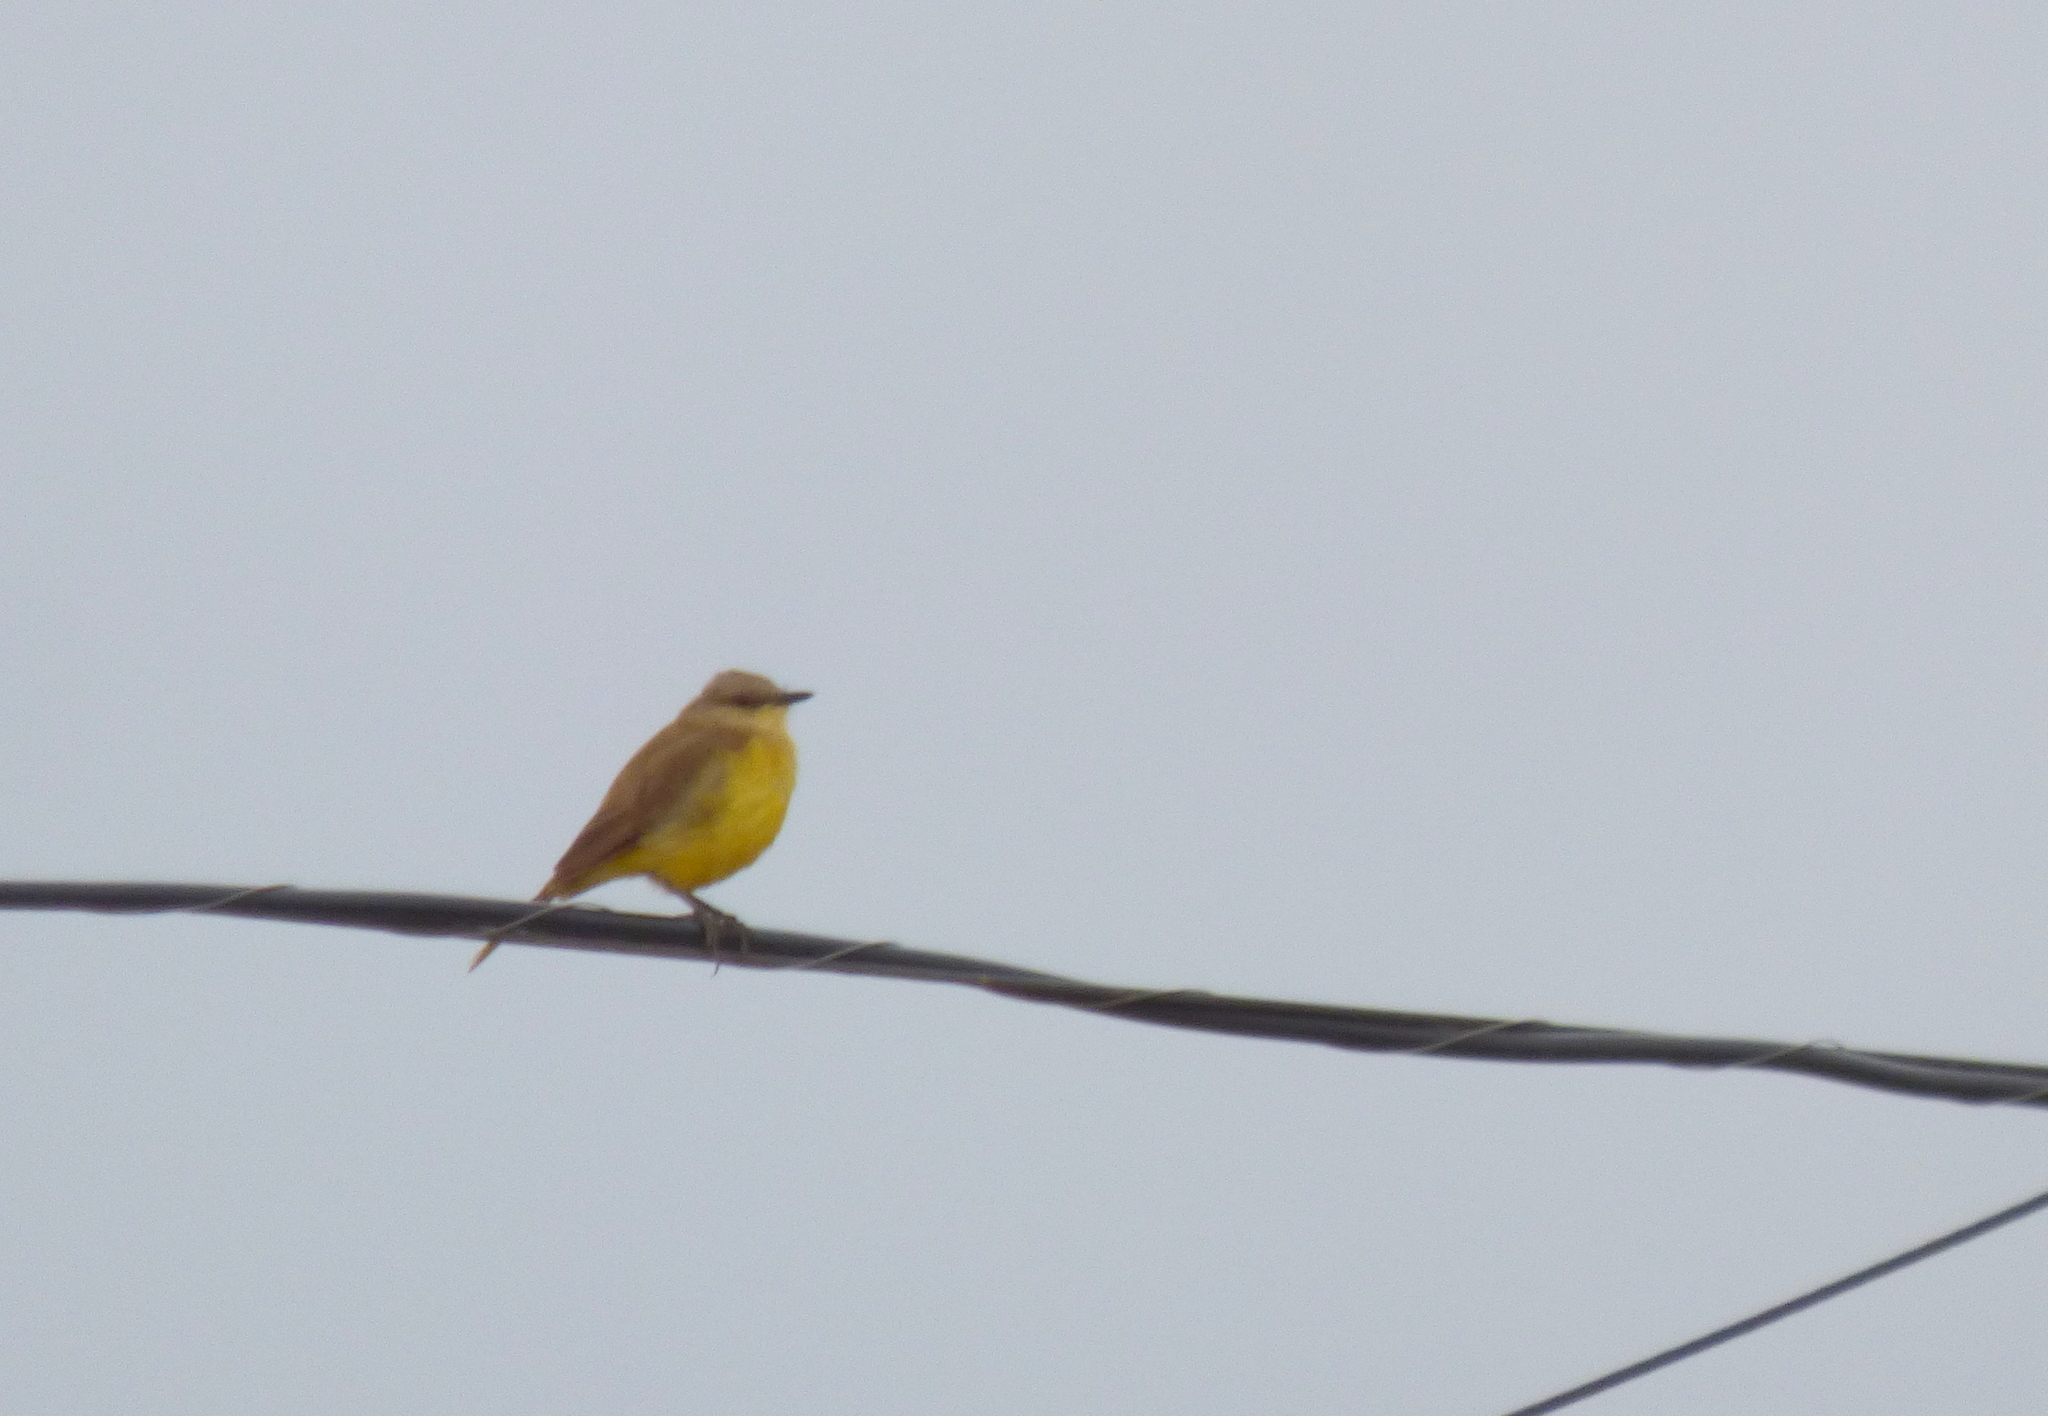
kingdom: Animalia
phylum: Chordata
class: Aves
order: Passeriformes
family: Tyrannidae
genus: Machetornis
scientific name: Machetornis rixosa
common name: Cattle tyrant
